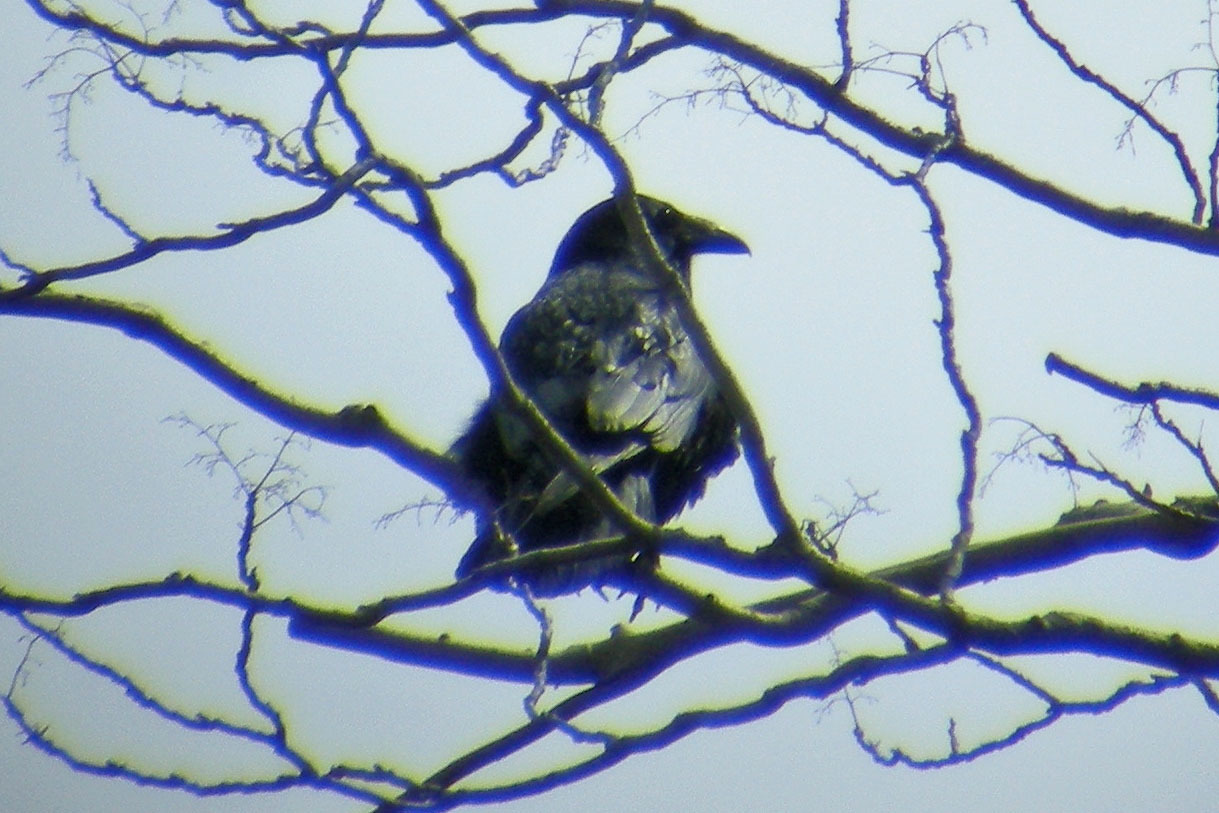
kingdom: Animalia
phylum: Chordata
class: Aves
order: Passeriformes
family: Corvidae
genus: Corvus
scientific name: Corvus corax
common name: Common raven
